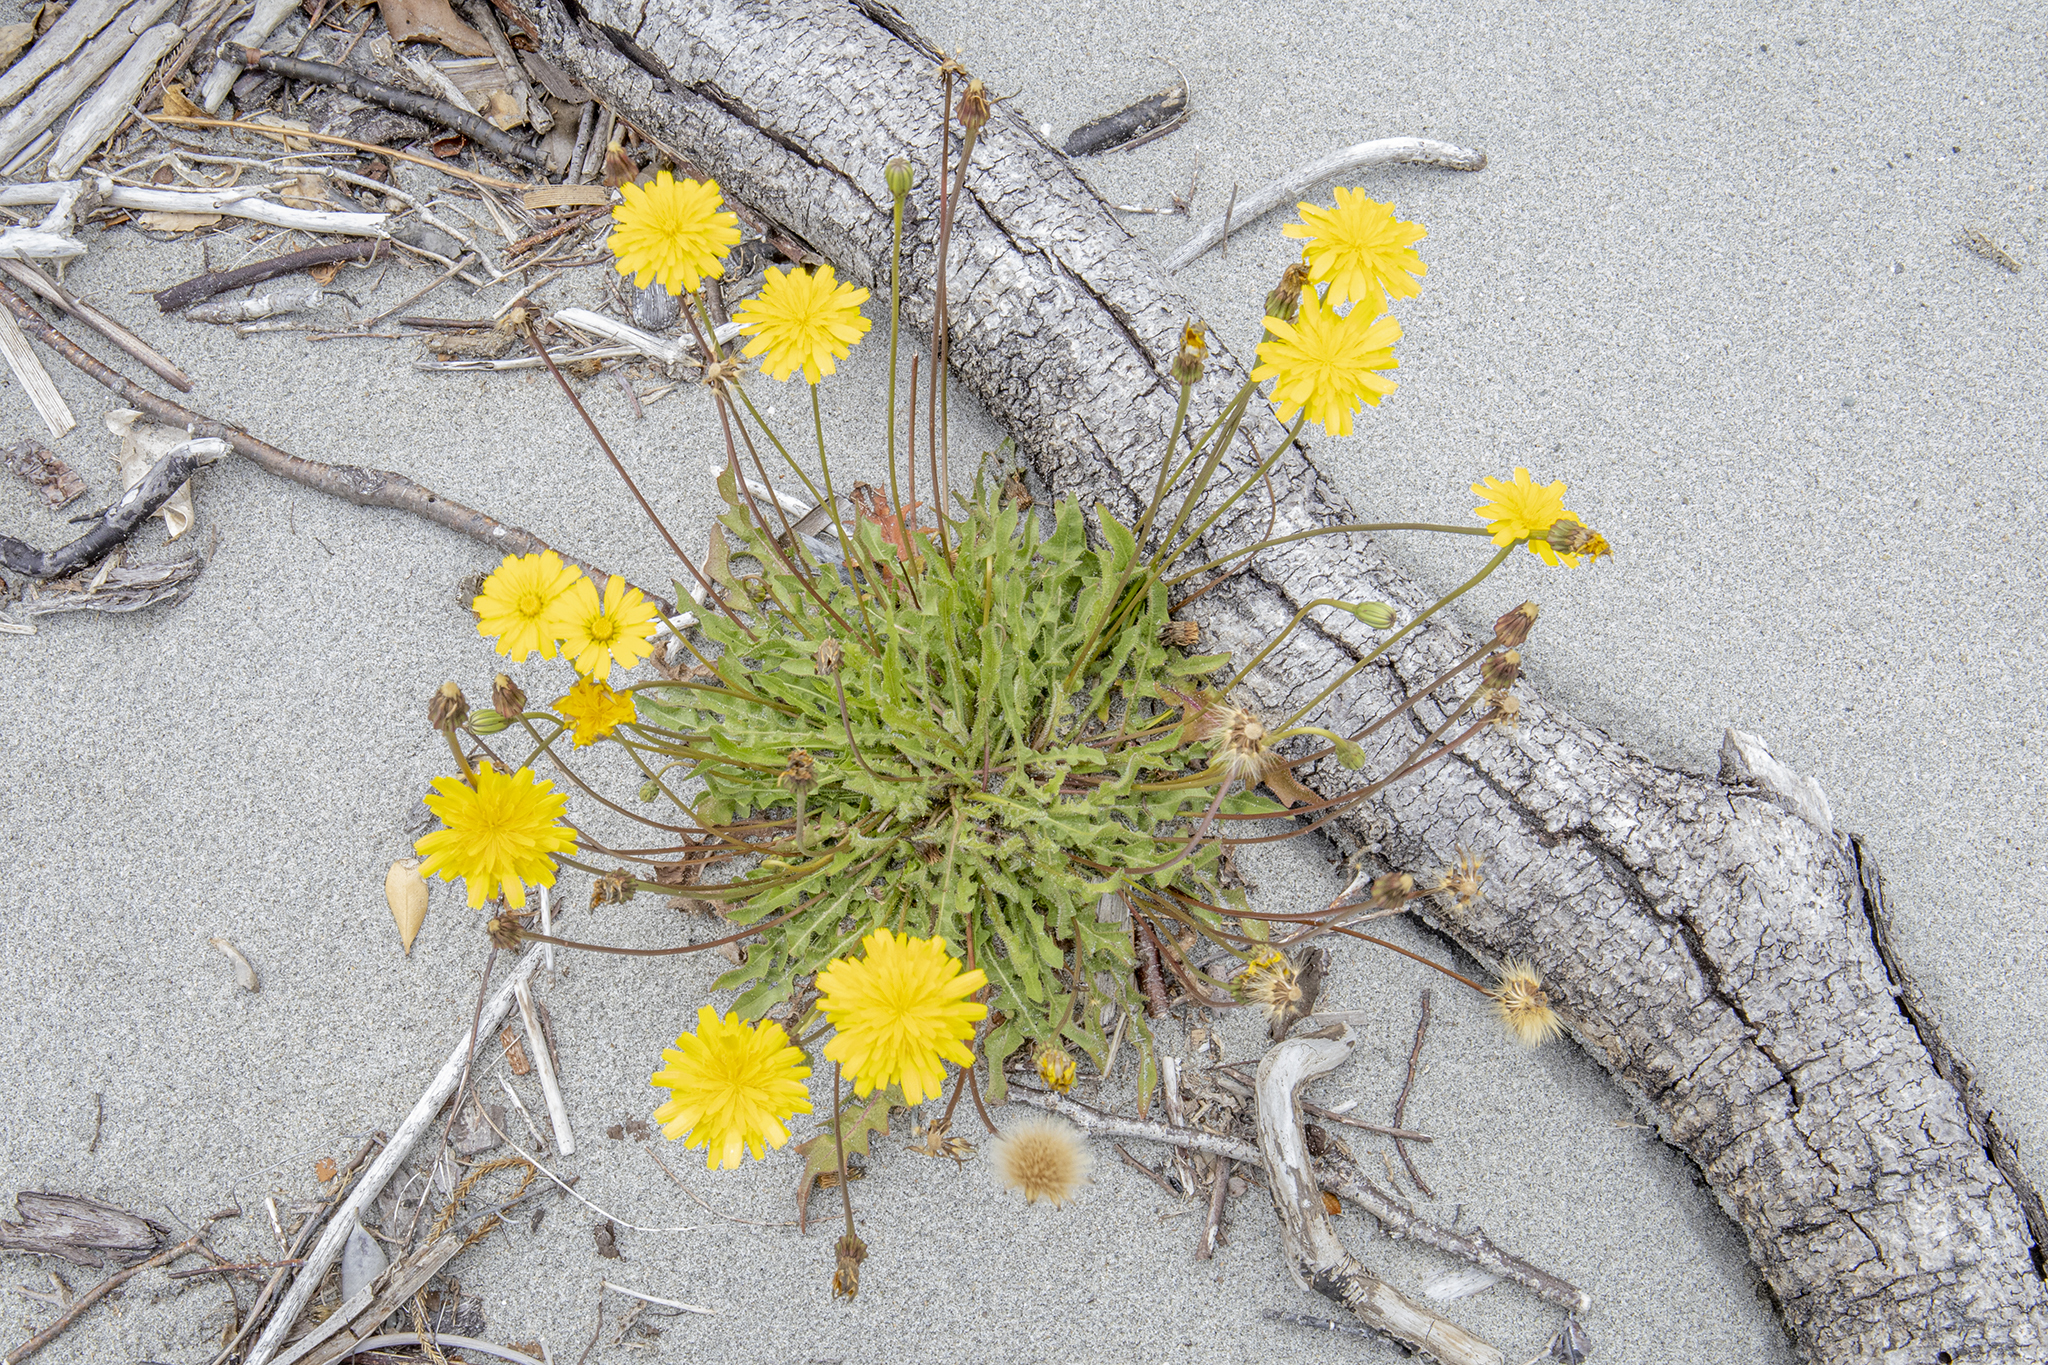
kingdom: Plantae
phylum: Tracheophyta
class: Magnoliopsida
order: Asterales
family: Asteraceae
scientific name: Asteraceae
